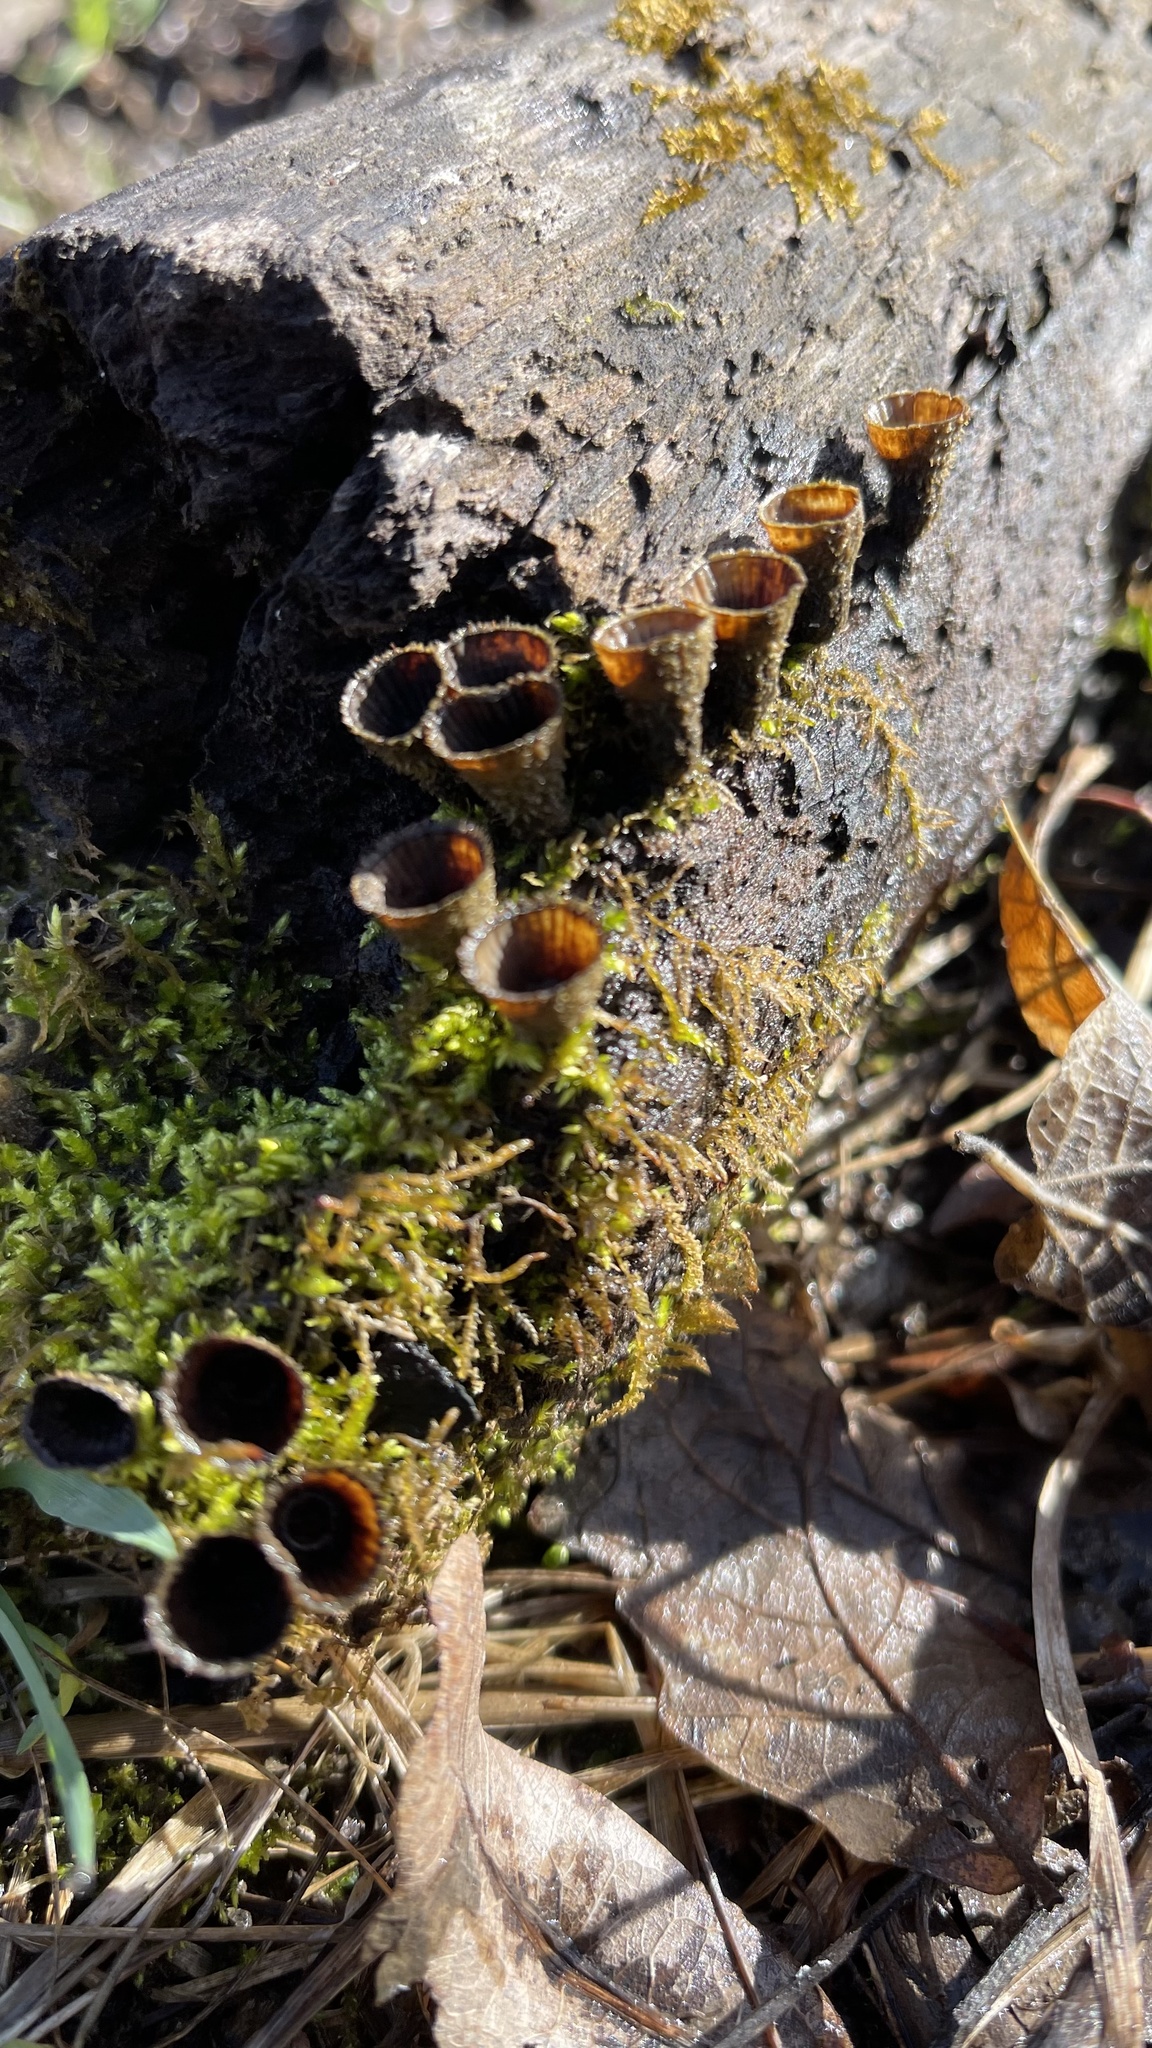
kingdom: Fungi
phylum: Basidiomycota
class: Agaricomycetes
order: Agaricales
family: Agaricaceae
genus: Cyathus
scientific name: Cyathus striatus
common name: Fluted bird's nest
